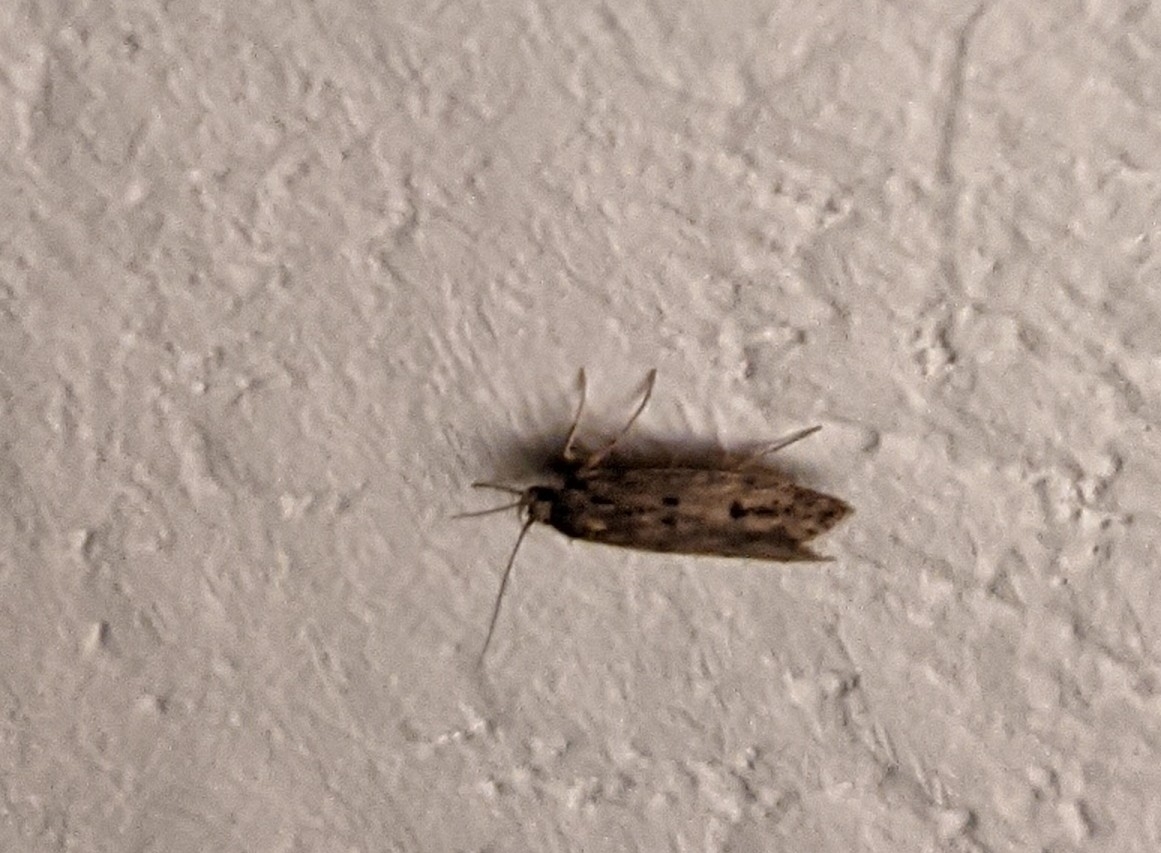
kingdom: Animalia
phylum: Arthropoda
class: Insecta
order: Lepidoptera
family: Oecophoridae
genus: Hofmannophila
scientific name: Hofmannophila pseudospretella
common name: Brown house moth
